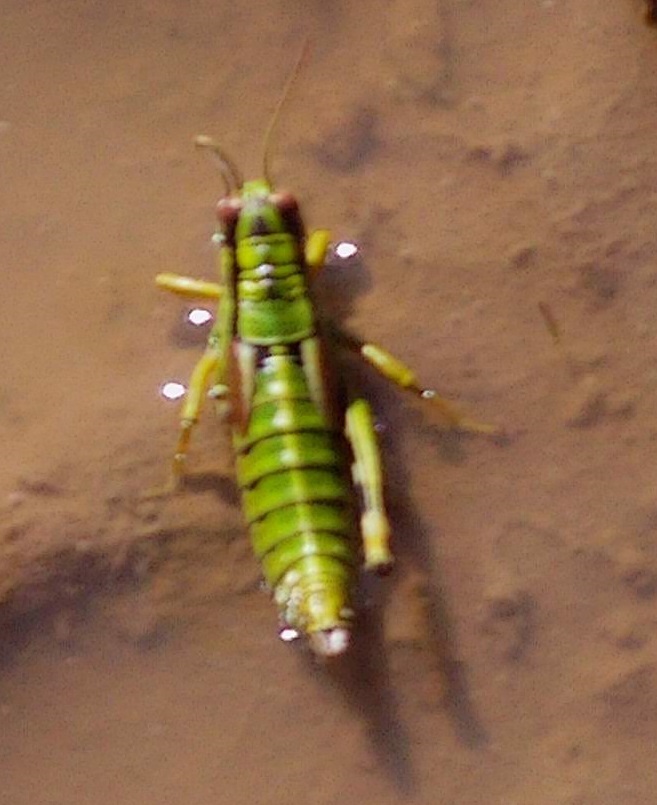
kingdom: Animalia
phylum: Arthropoda
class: Insecta
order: Orthoptera
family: Acrididae
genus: Miramella
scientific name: Miramella alpina
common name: Green mountain grasshopper
